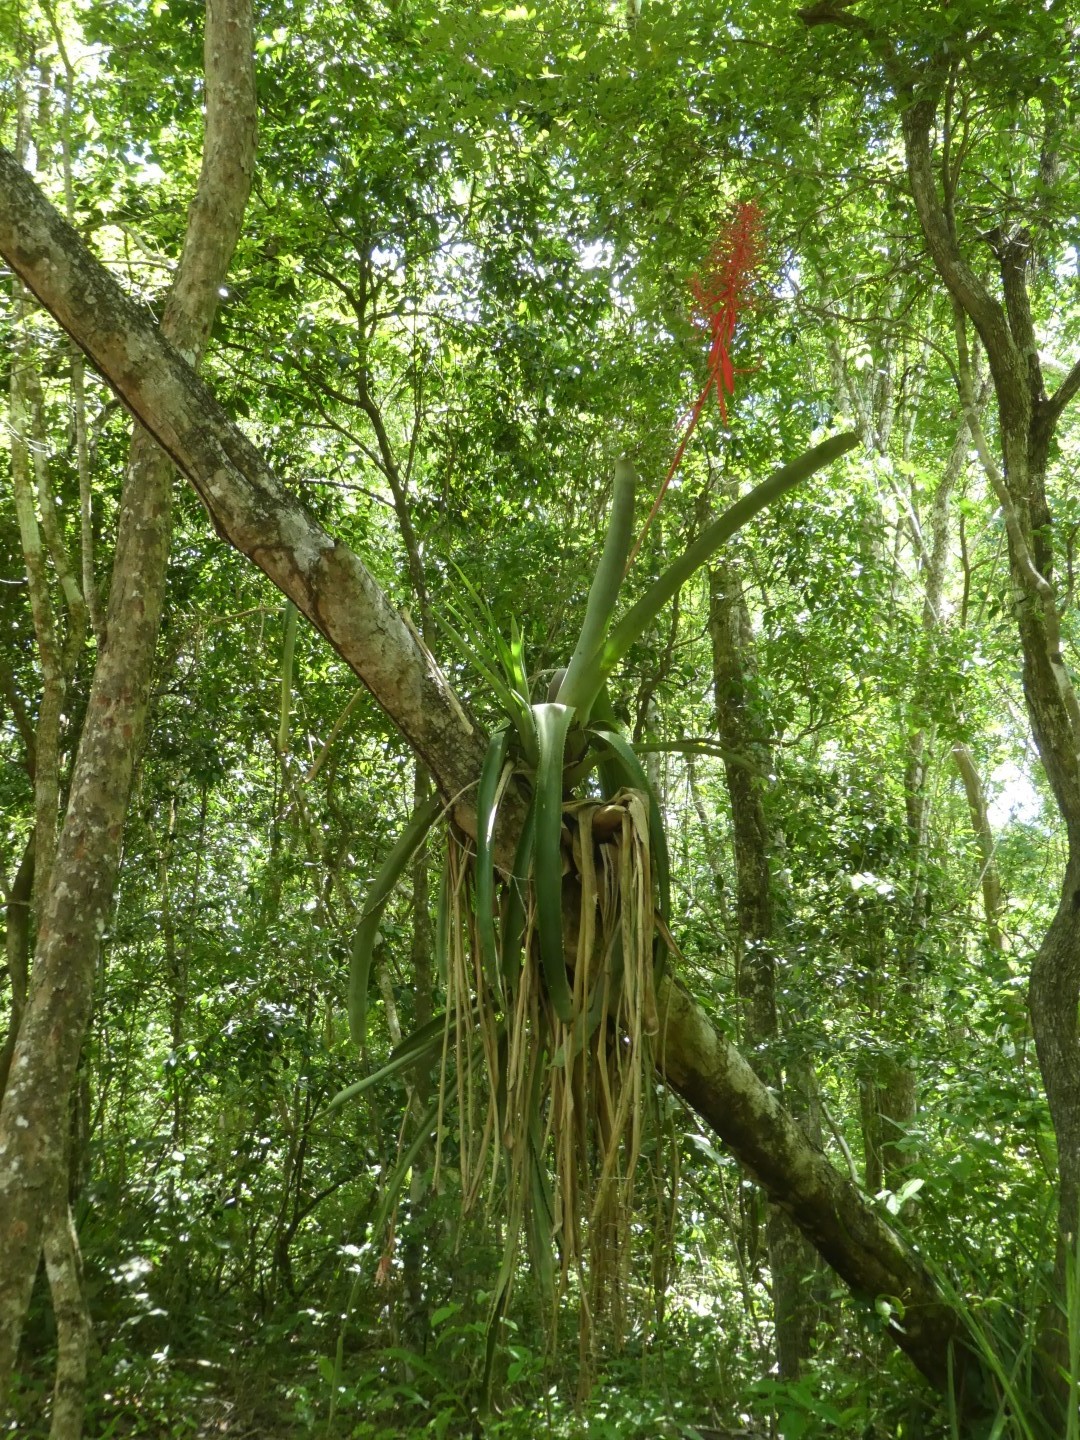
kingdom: Plantae
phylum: Tracheophyta
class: Liliopsida
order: Poales
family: Bromeliaceae
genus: Aechmea
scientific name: Aechmea bracteata
